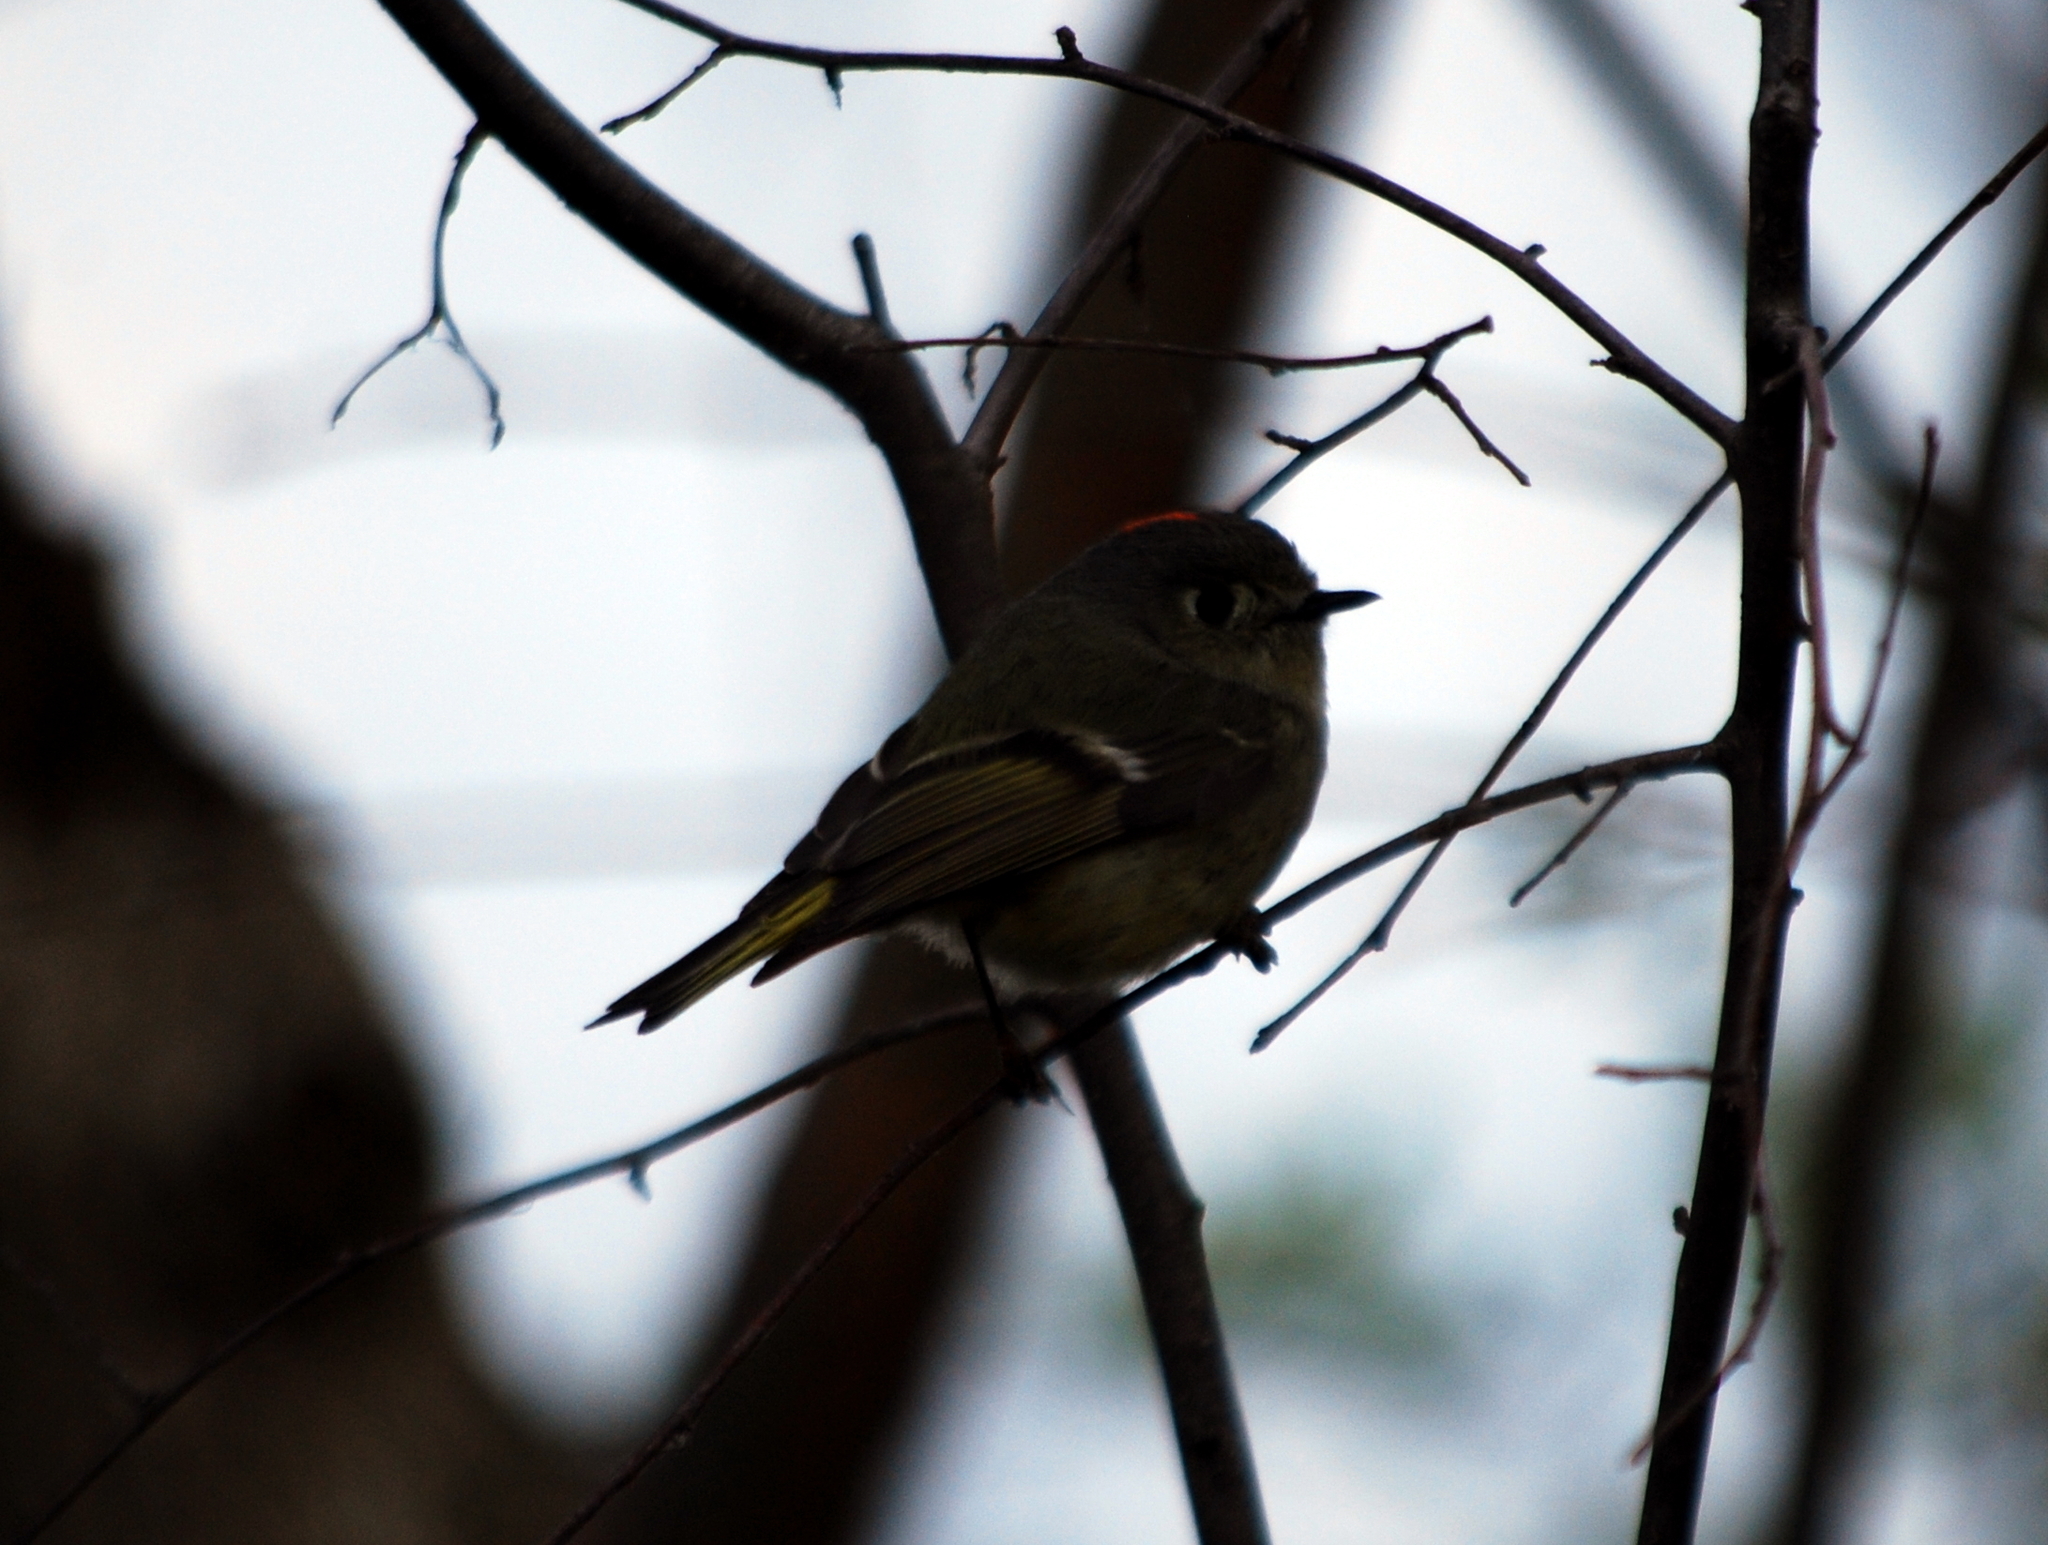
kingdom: Animalia
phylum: Chordata
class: Aves
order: Passeriformes
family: Regulidae
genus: Regulus
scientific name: Regulus calendula
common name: Ruby-crowned kinglet
